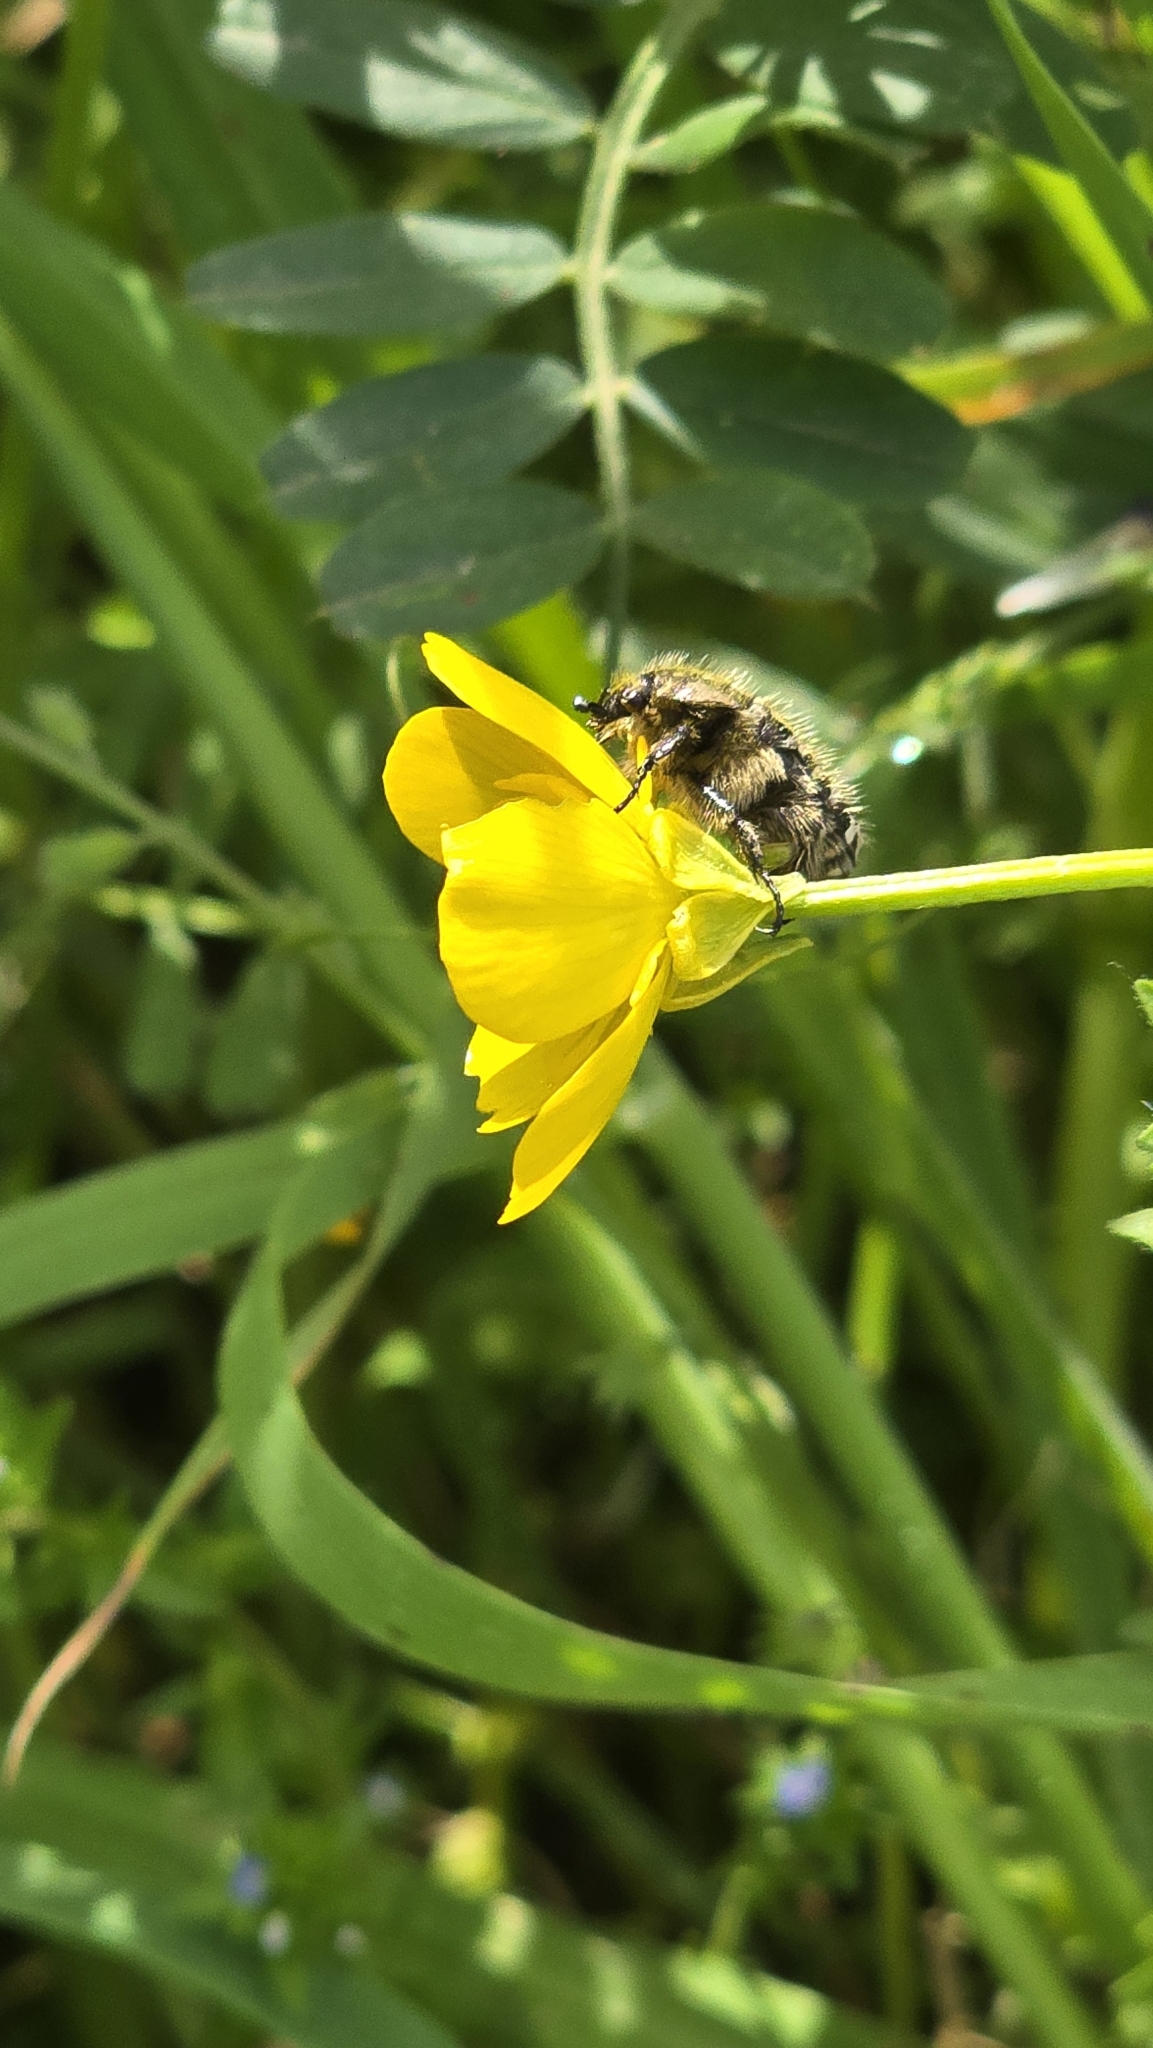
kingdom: Animalia
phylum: Arthropoda
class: Insecta
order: Coleoptera
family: Scarabaeidae
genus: Oxythyrea
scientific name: Oxythyrea funesta
